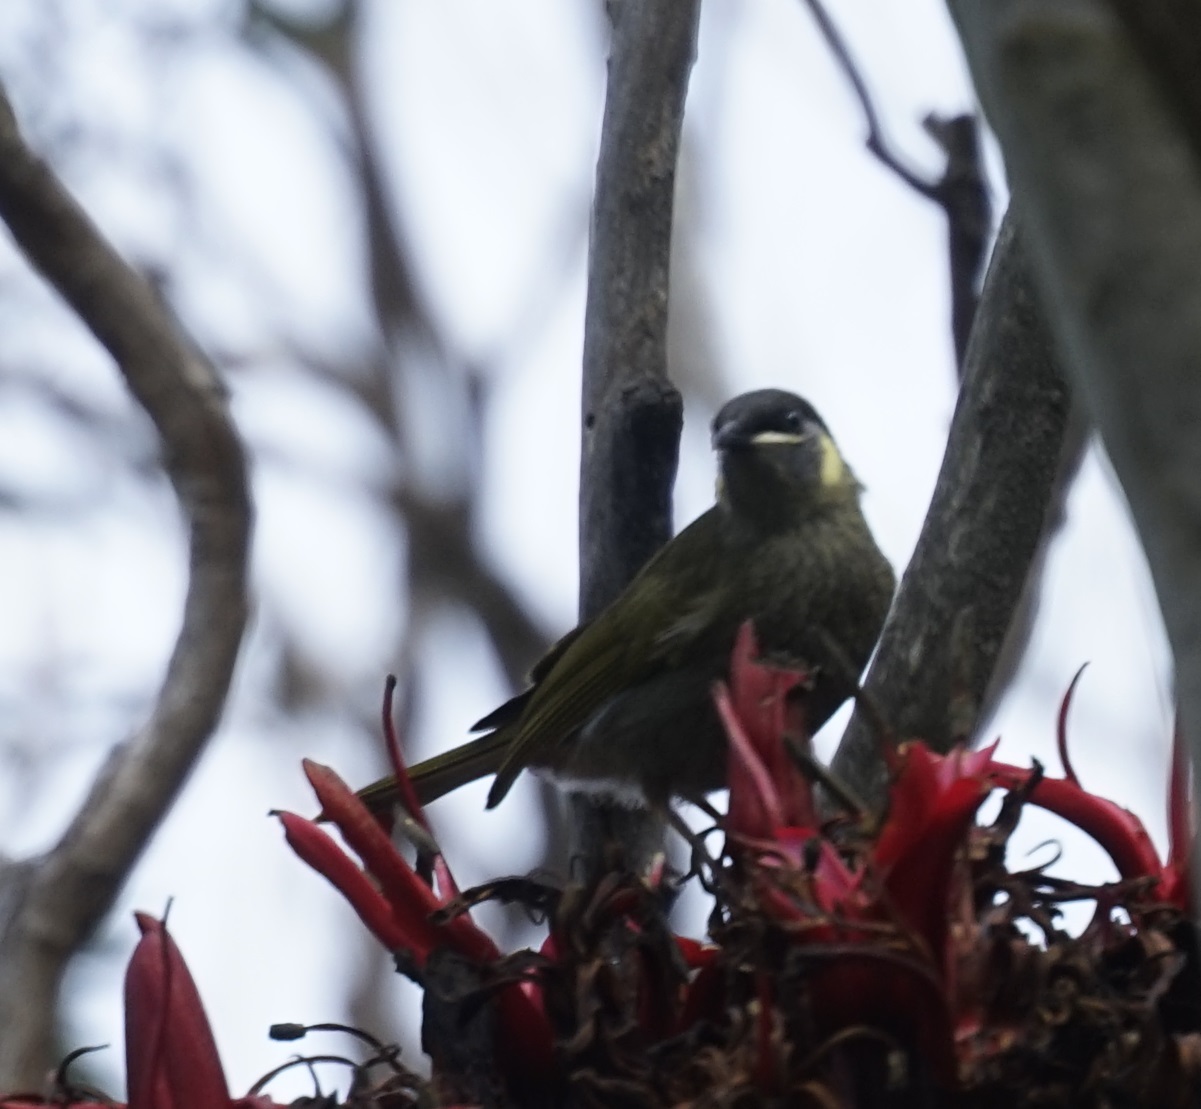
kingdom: Animalia
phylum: Chordata
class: Aves
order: Passeriformes
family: Meliphagidae
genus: Meliphaga
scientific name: Meliphaga lewinii
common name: Lewin's honeyeater
